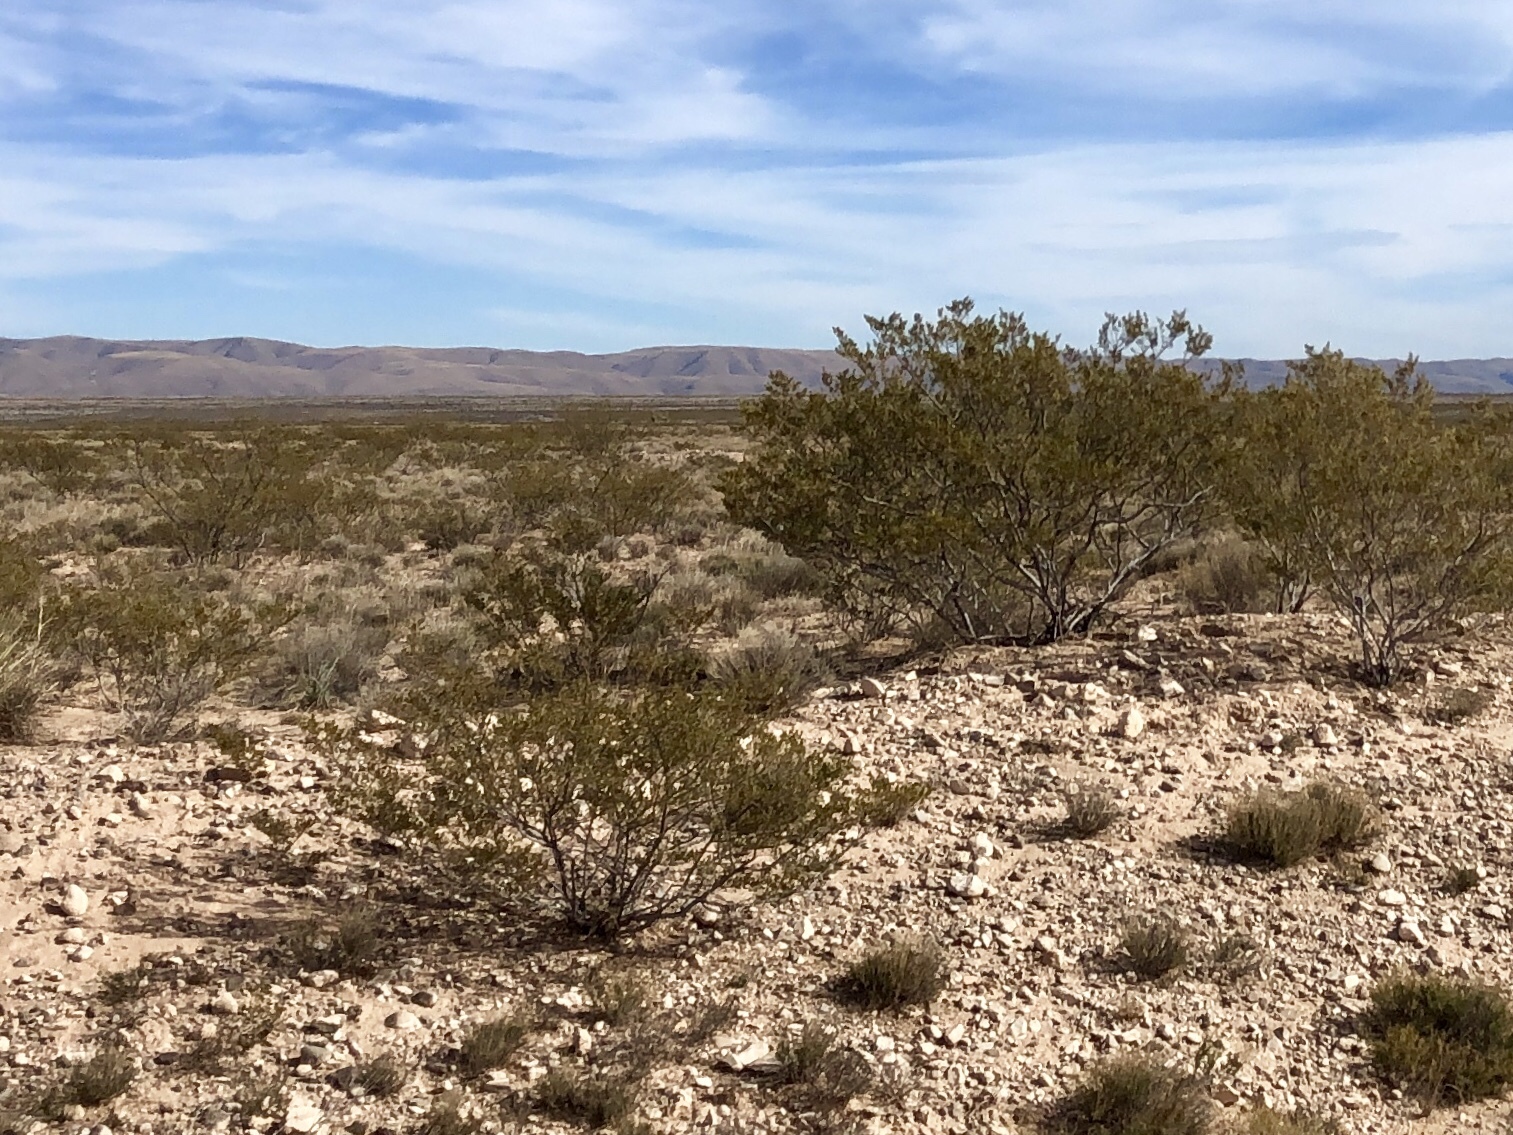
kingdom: Plantae
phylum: Tracheophyta
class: Magnoliopsida
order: Zygophyllales
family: Zygophyllaceae
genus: Larrea
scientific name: Larrea tridentata
